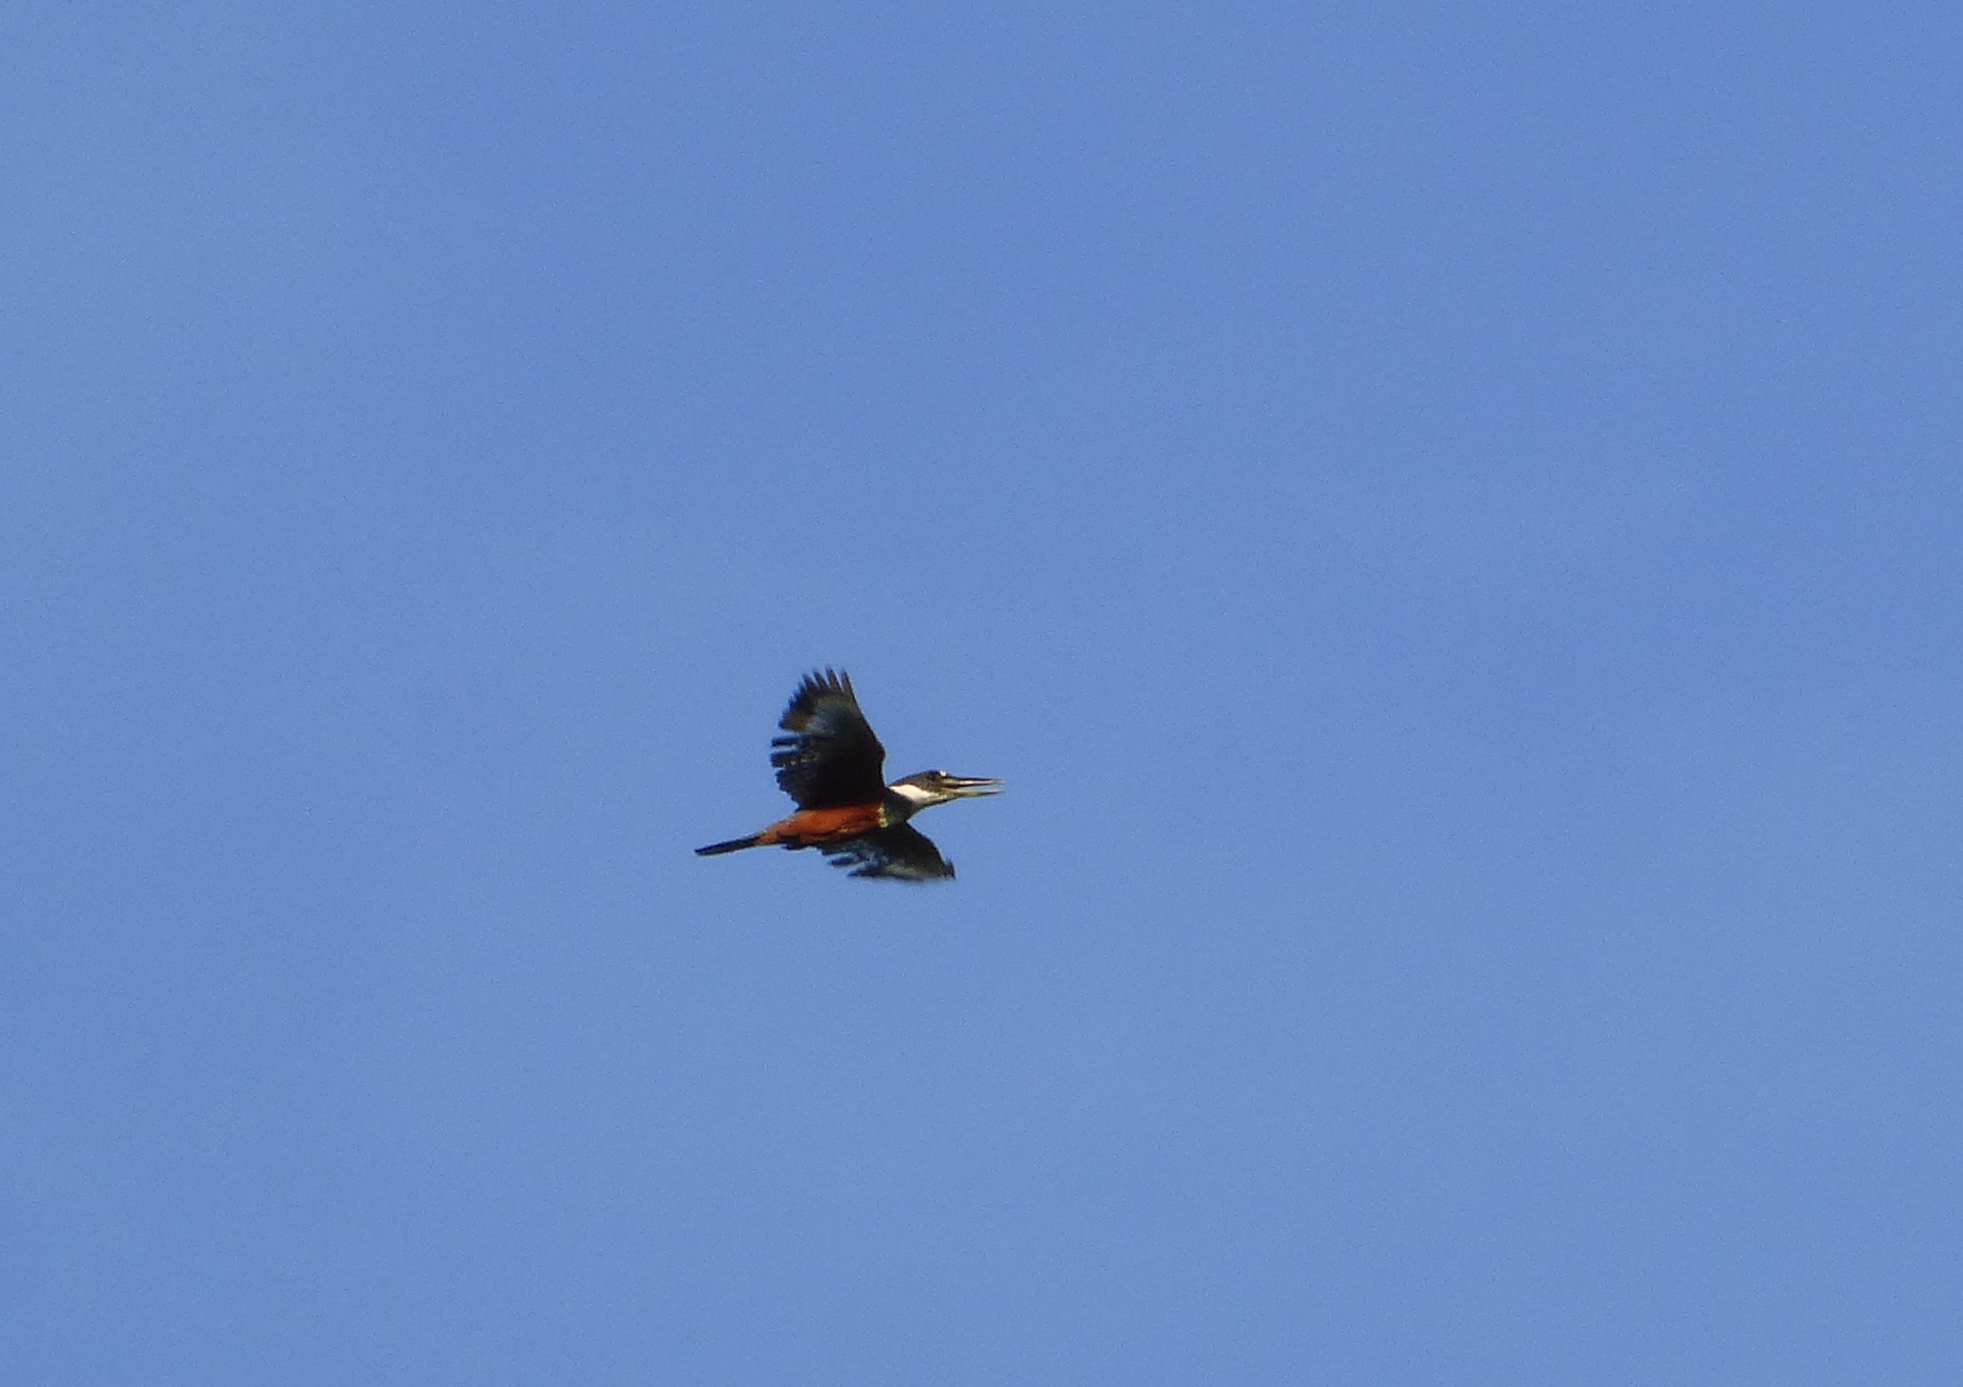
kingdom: Animalia
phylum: Chordata
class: Aves
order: Coraciiformes
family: Alcedinidae
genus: Megaceryle
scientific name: Megaceryle torquata
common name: Ringed kingfisher
